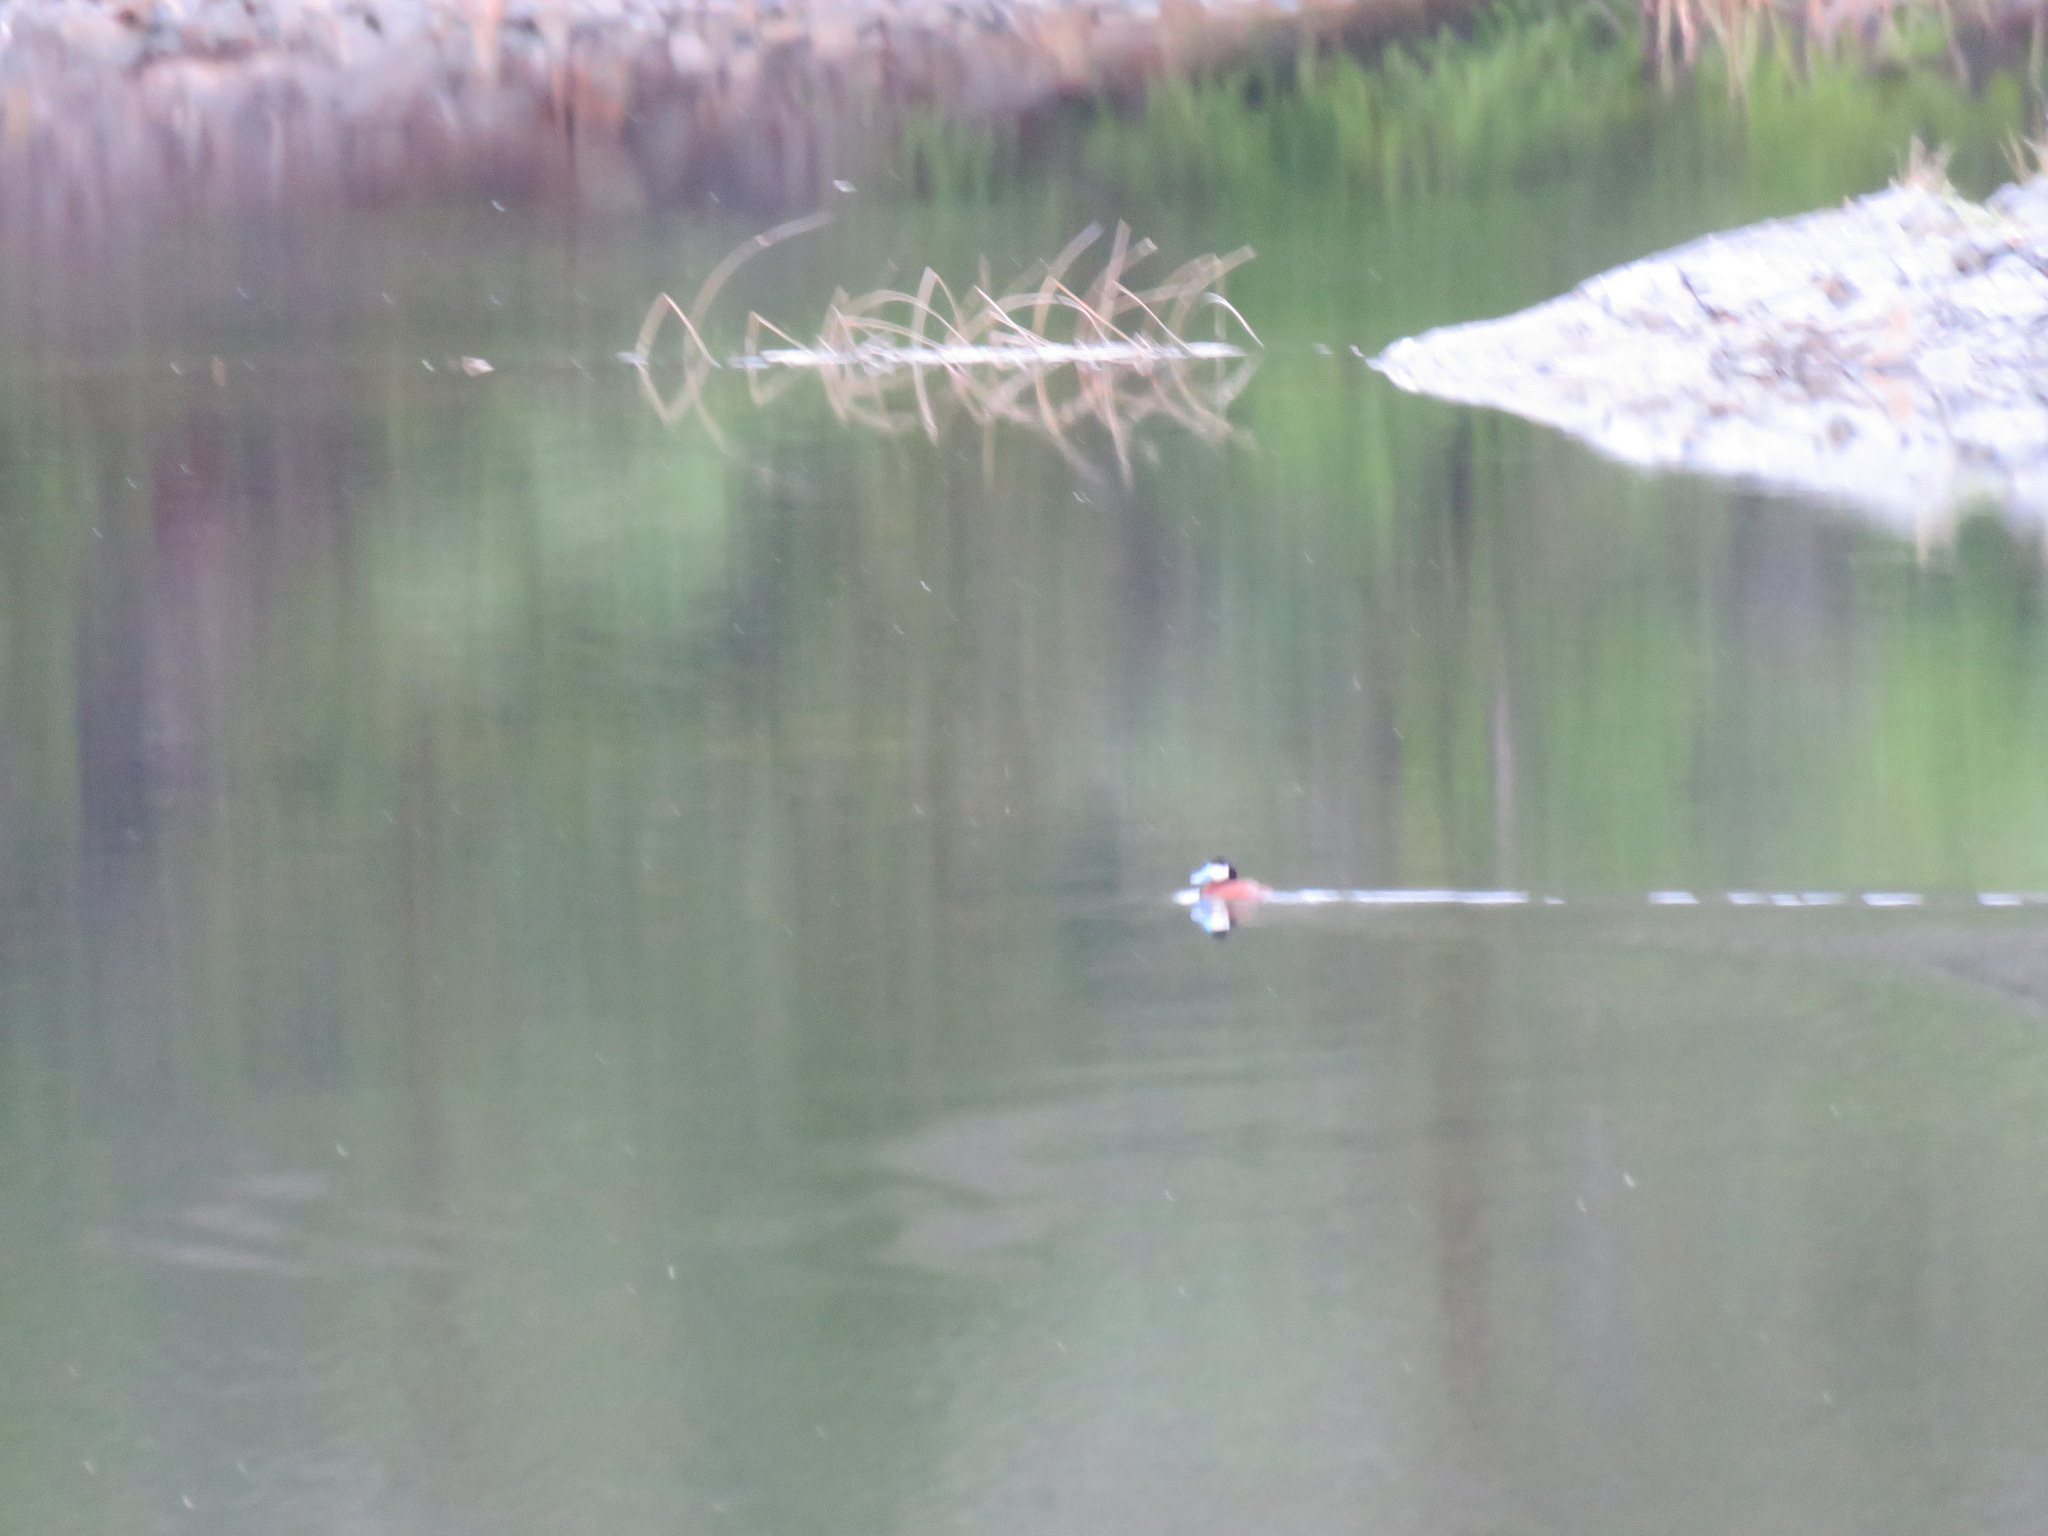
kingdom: Animalia
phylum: Chordata
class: Aves
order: Anseriformes
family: Anatidae
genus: Oxyura
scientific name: Oxyura jamaicensis
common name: Ruddy duck
